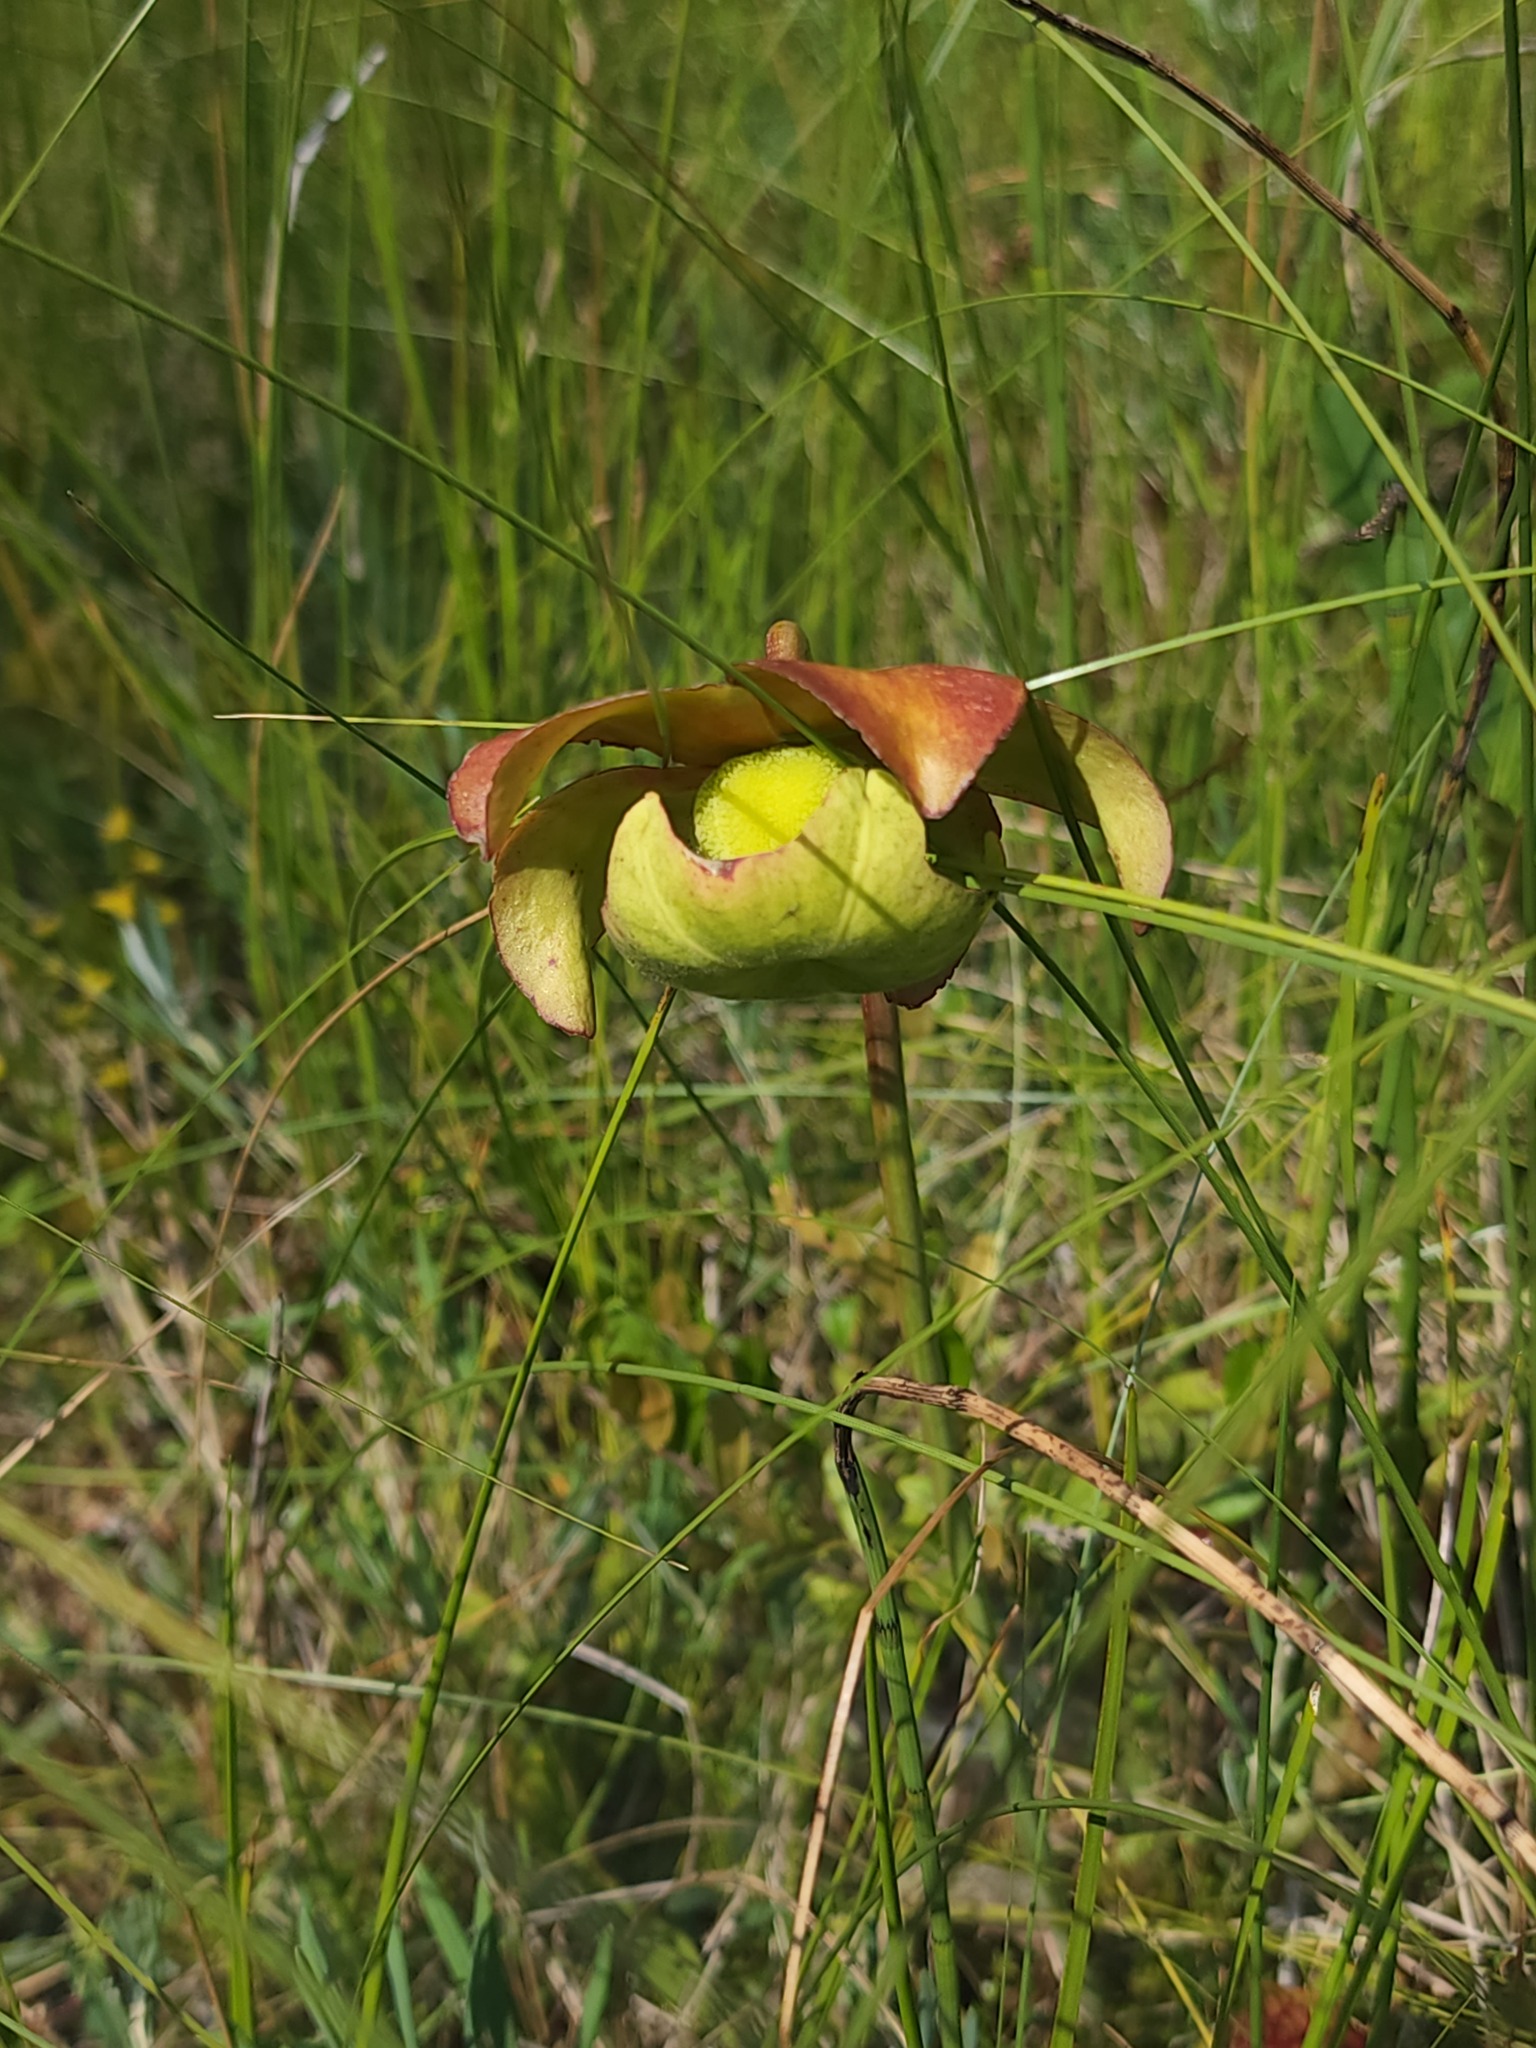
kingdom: Plantae
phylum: Tracheophyta
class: Magnoliopsida
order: Ericales
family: Sarraceniaceae
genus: Sarracenia
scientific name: Sarracenia purpurea
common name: Pitcherplant
